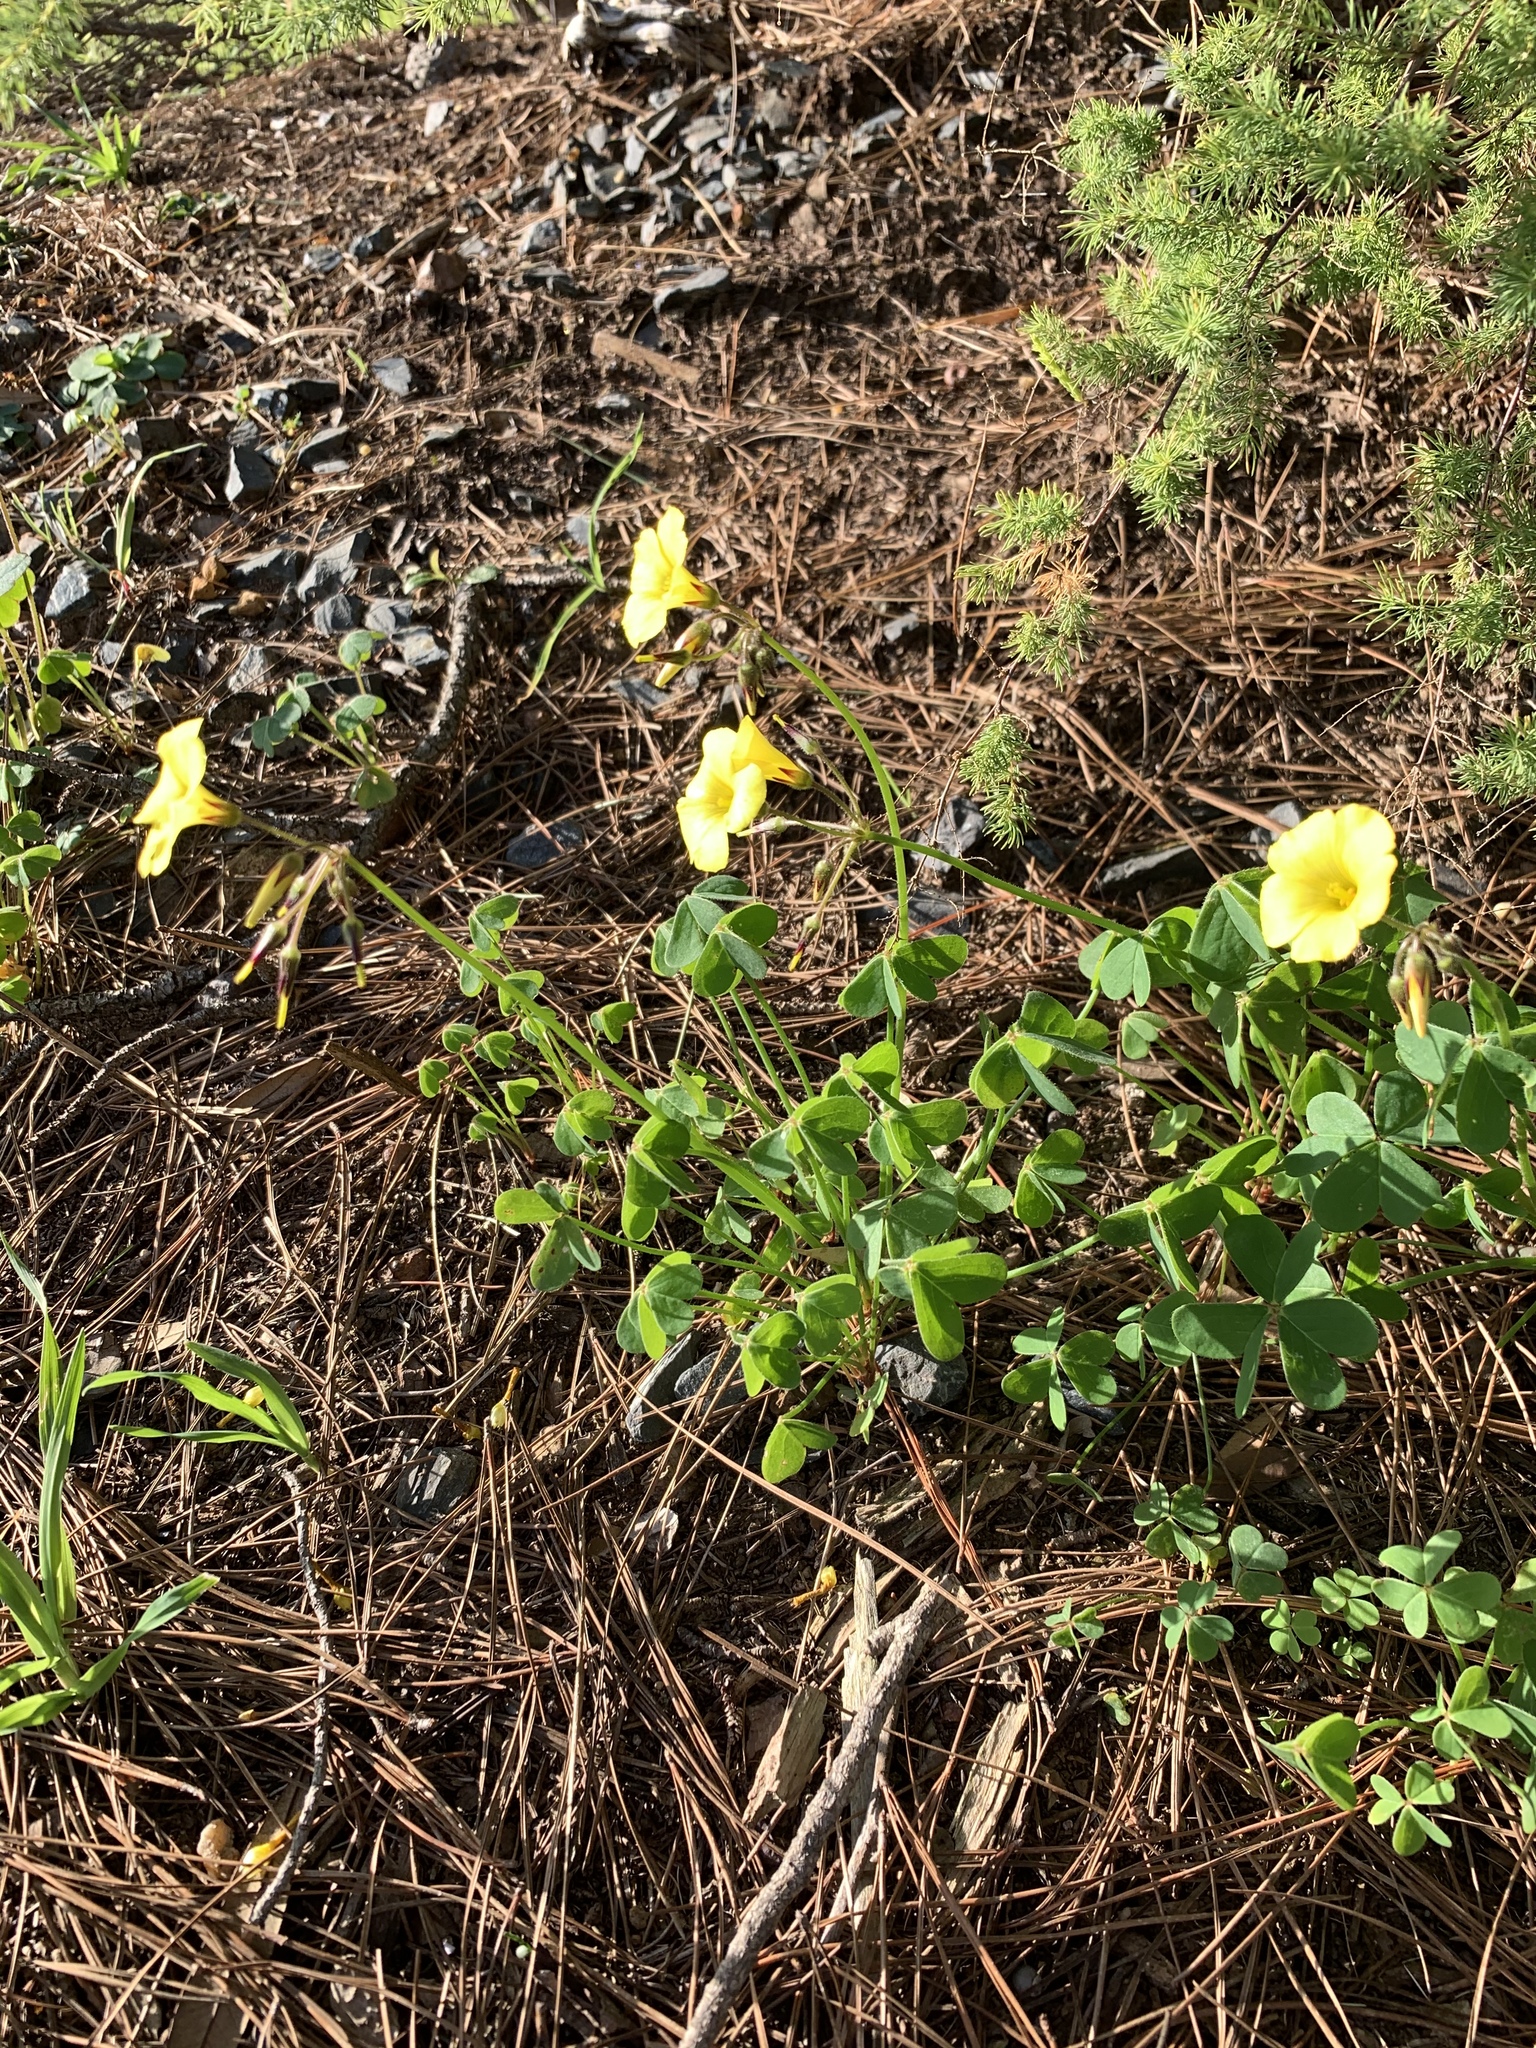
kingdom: Plantae
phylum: Tracheophyta
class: Magnoliopsida
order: Oxalidales
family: Oxalidaceae
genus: Oxalis
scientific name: Oxalis pes-caprae
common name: Bermuda-buttercup
